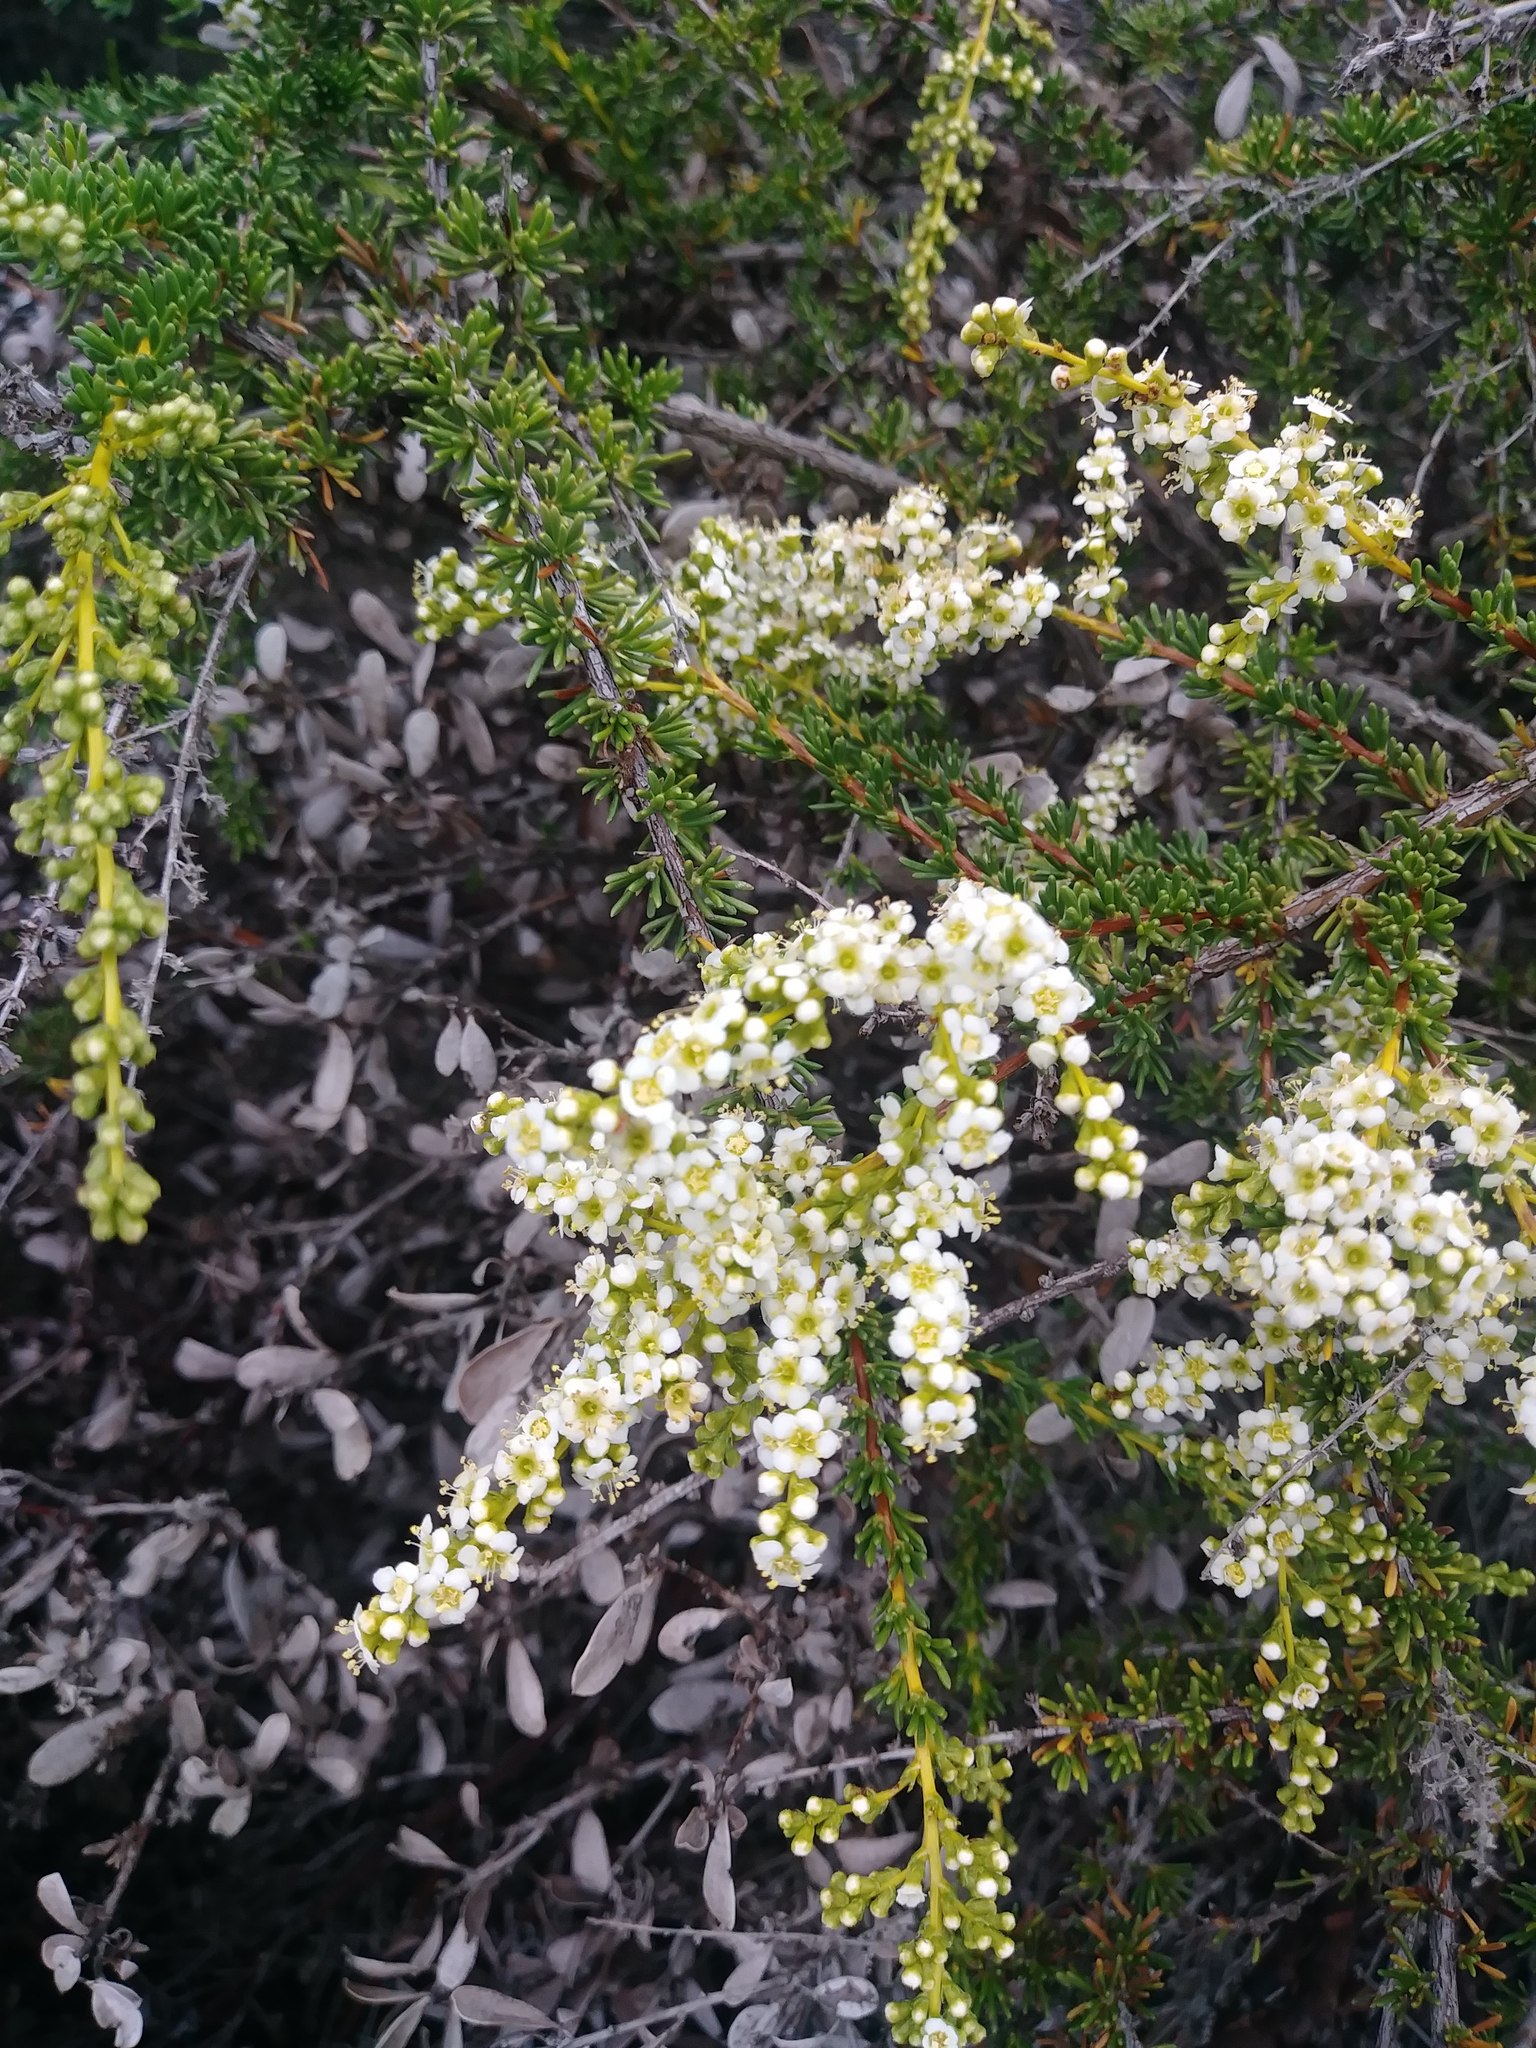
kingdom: Plantae
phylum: Tracheophyta
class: Magnoliopsida
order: Rosales
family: Rosaceae
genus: Adenostoma
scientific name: Adenostoma fasciculatum
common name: Chamise
